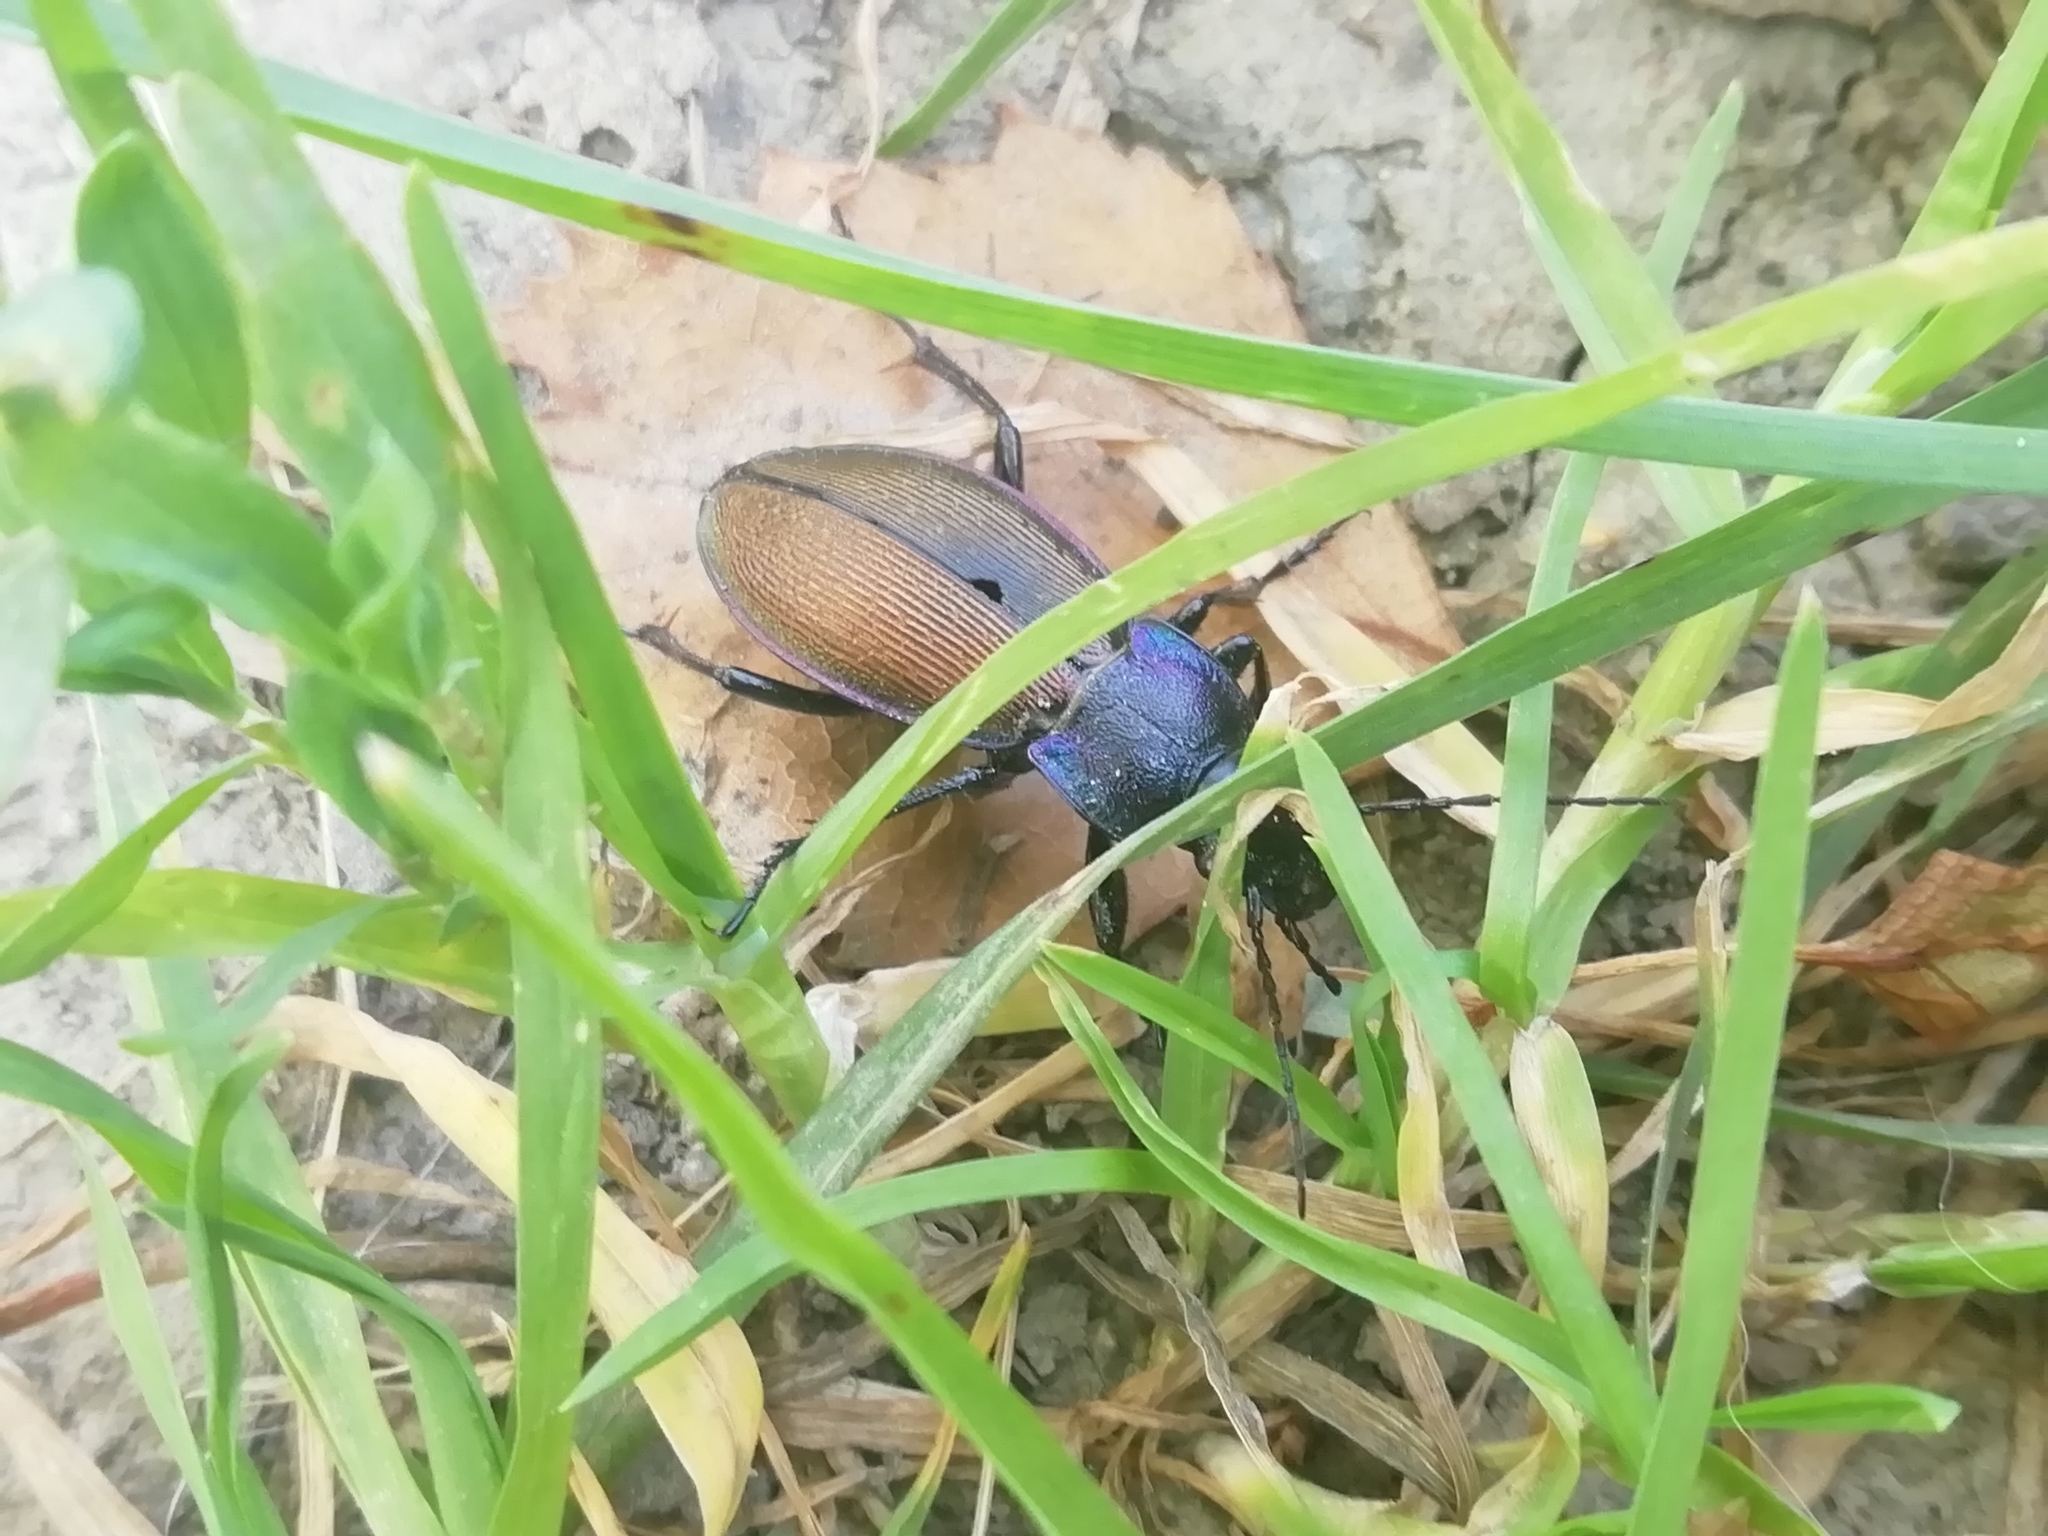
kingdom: Animalia
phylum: Arthropoda
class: Insecta
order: Coleoptera
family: Carabidae
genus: Carabus
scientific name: Carabus regalis
